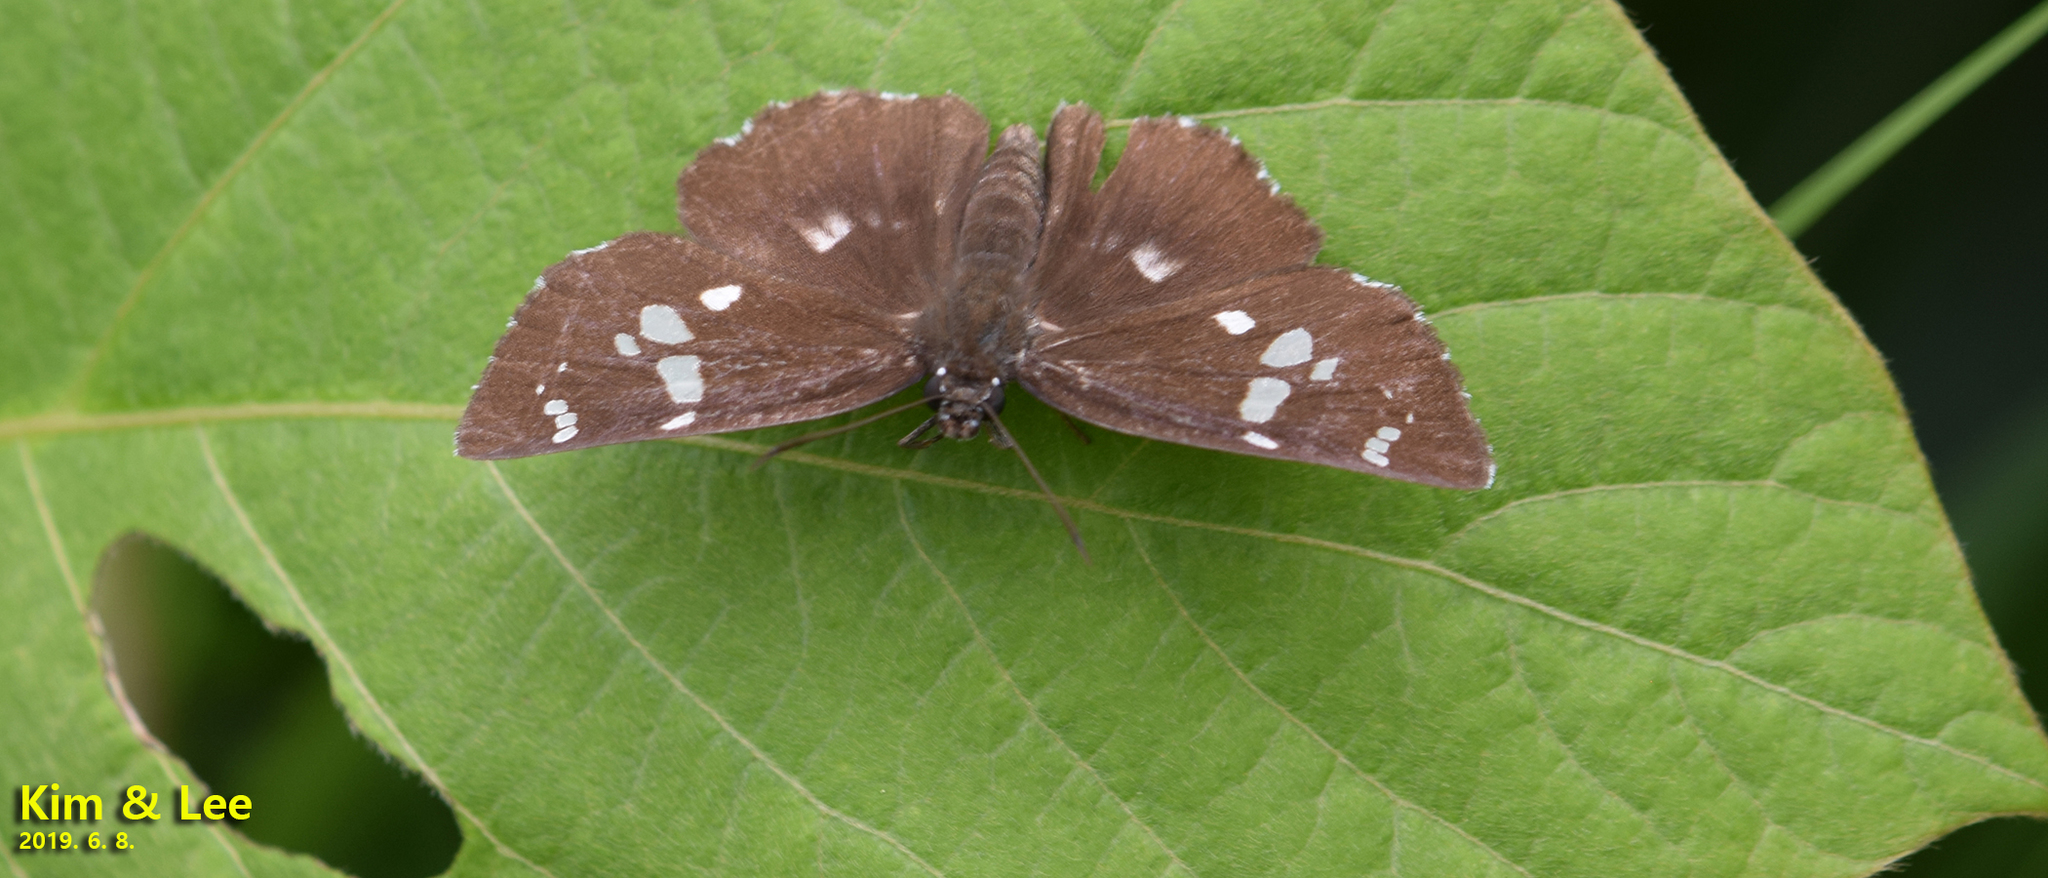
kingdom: Animalia
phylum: Arthropoda
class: Insecta
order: Lepidoptera
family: Hesperiidae
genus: Daimio
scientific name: Daimio tethys
